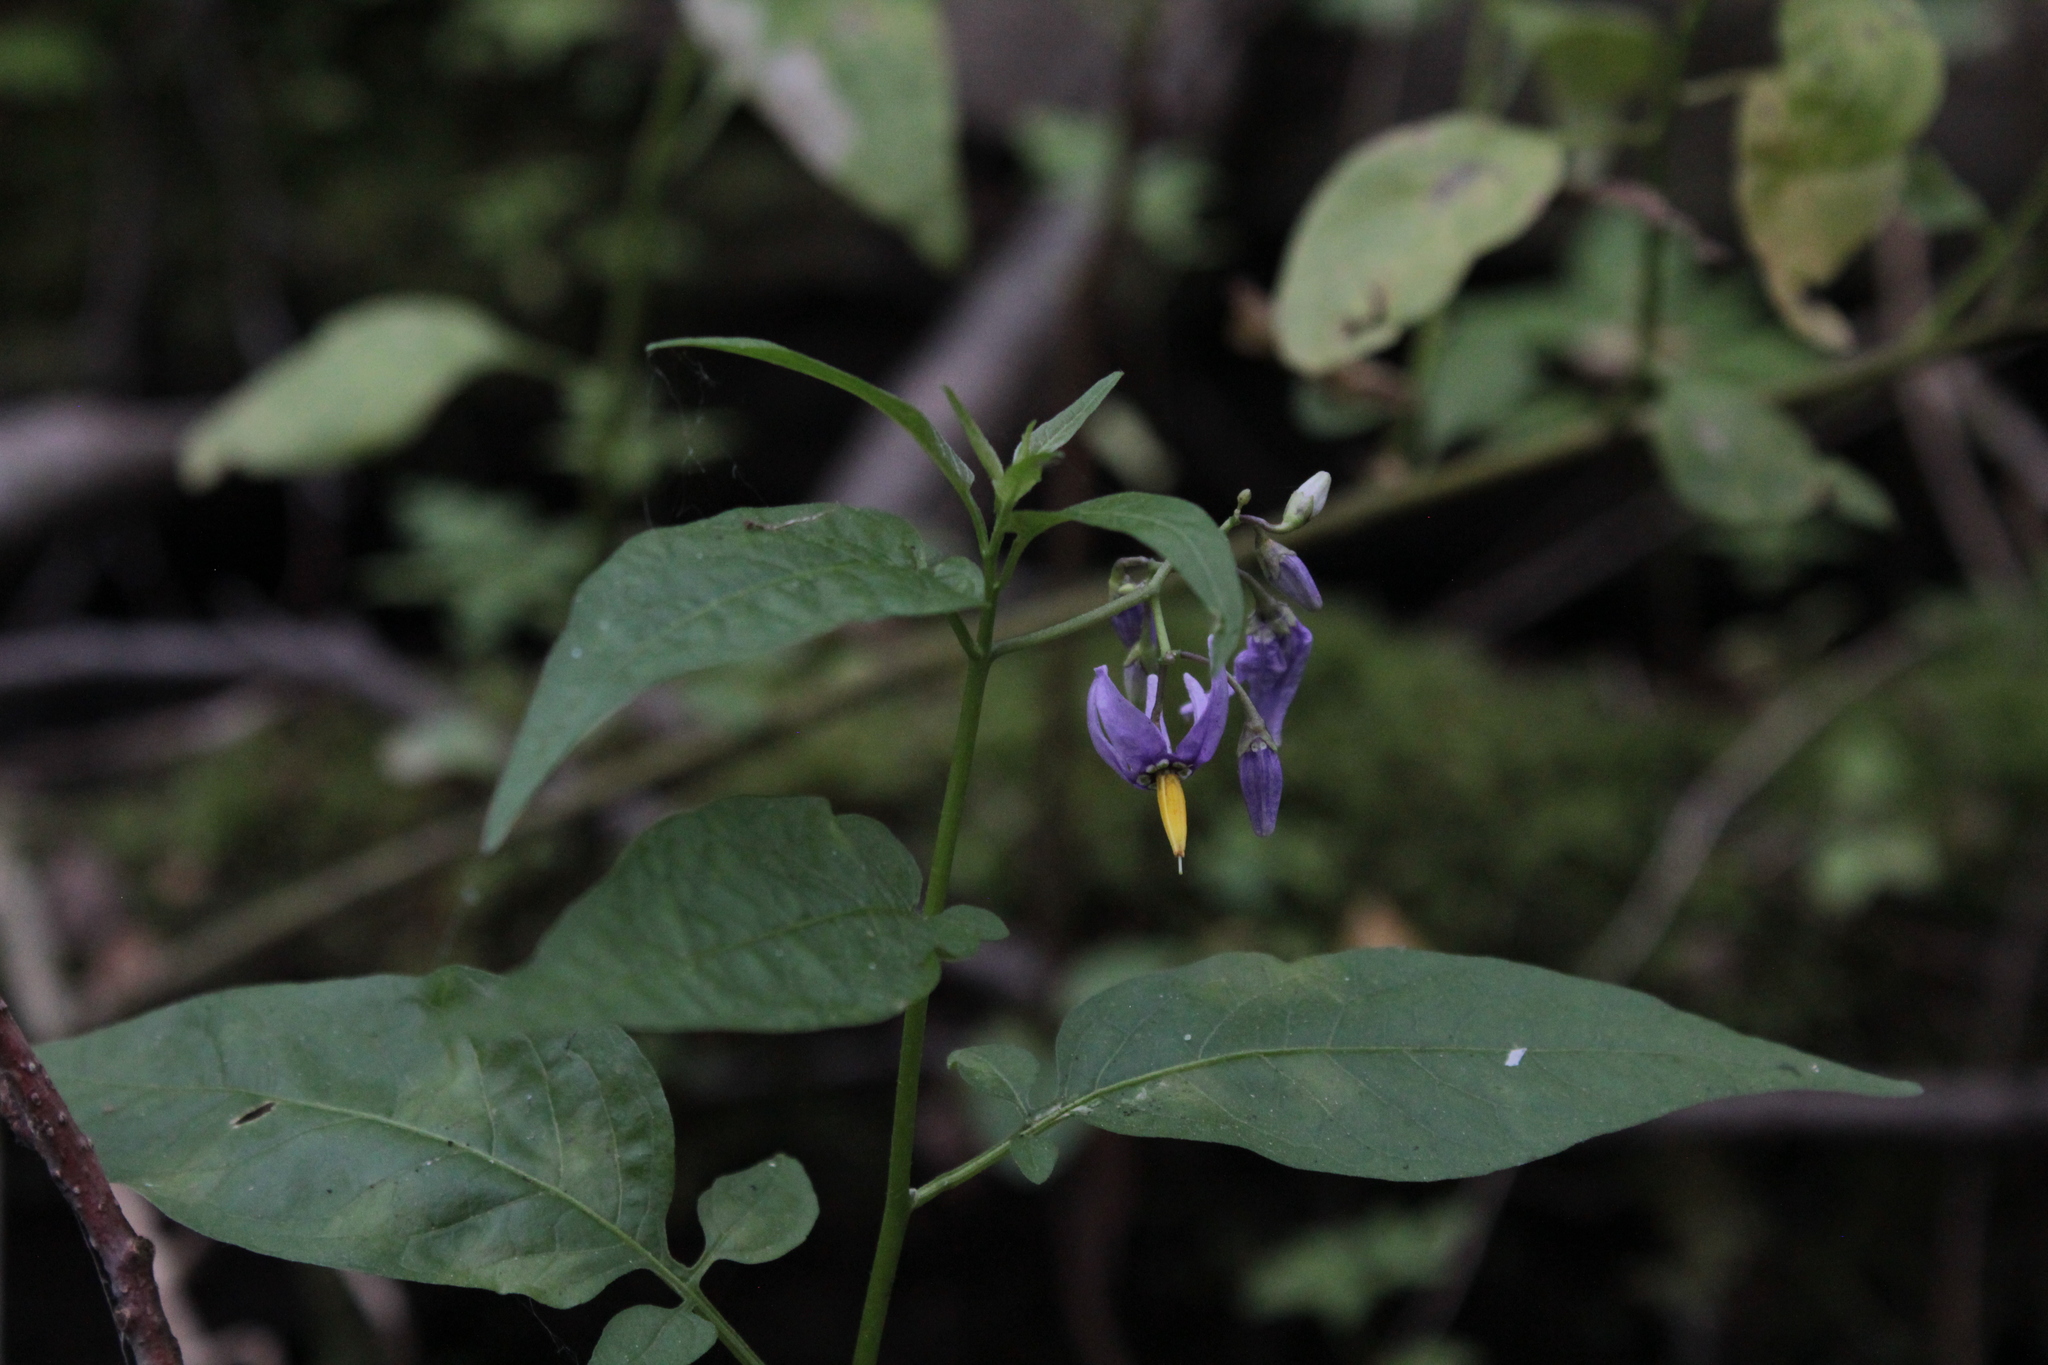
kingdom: Plantae
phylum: Tracheophyta
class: Magnoliopsida
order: Solanales
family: Solanaceae
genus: Solanum
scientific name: Solanum dulcamara
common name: Climbing nightshade
